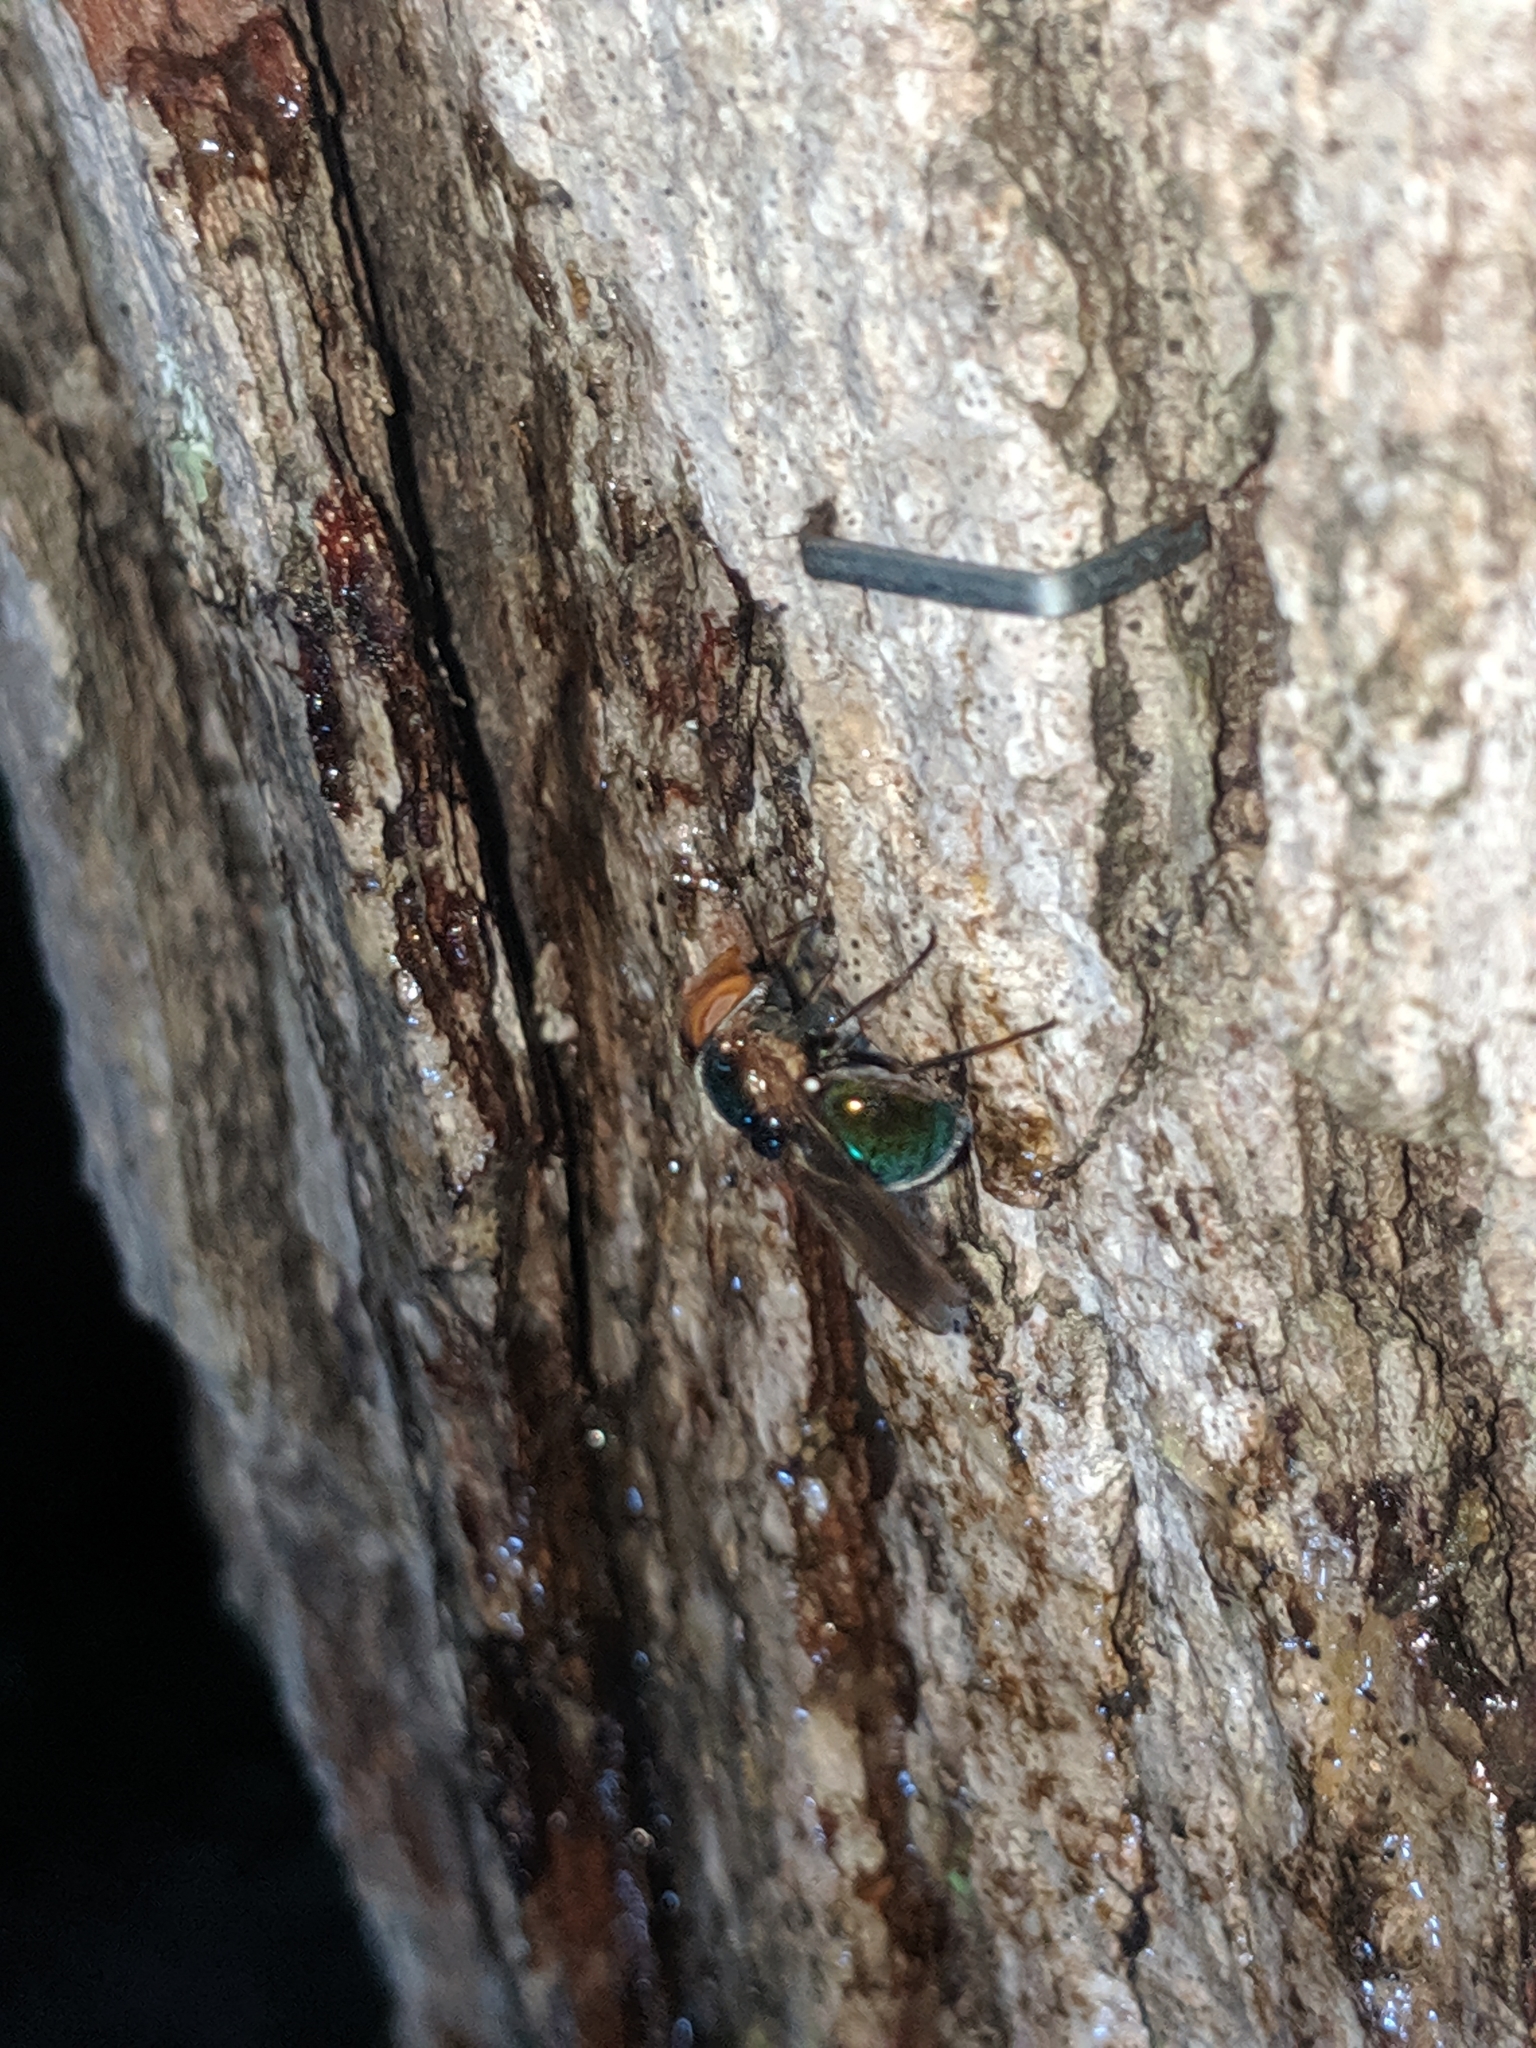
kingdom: Animalia
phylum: Arthropoda
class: Insecta
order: Diptera
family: Syrphidae
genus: Copestylum
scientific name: Copestylum
